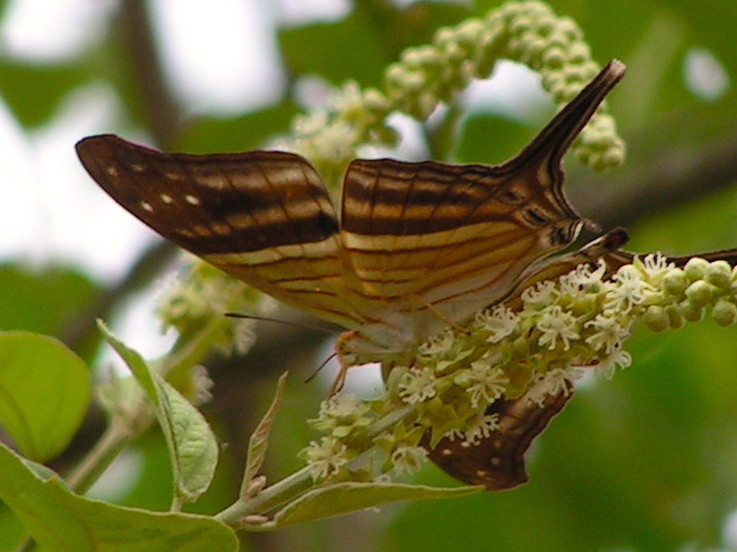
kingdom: Animalia
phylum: Arthropoda
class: Insecta
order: Lepidoptera
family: Nymphalidae
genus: Marpesia
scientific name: Marpesia chiron
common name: Many-banded daggerwing
